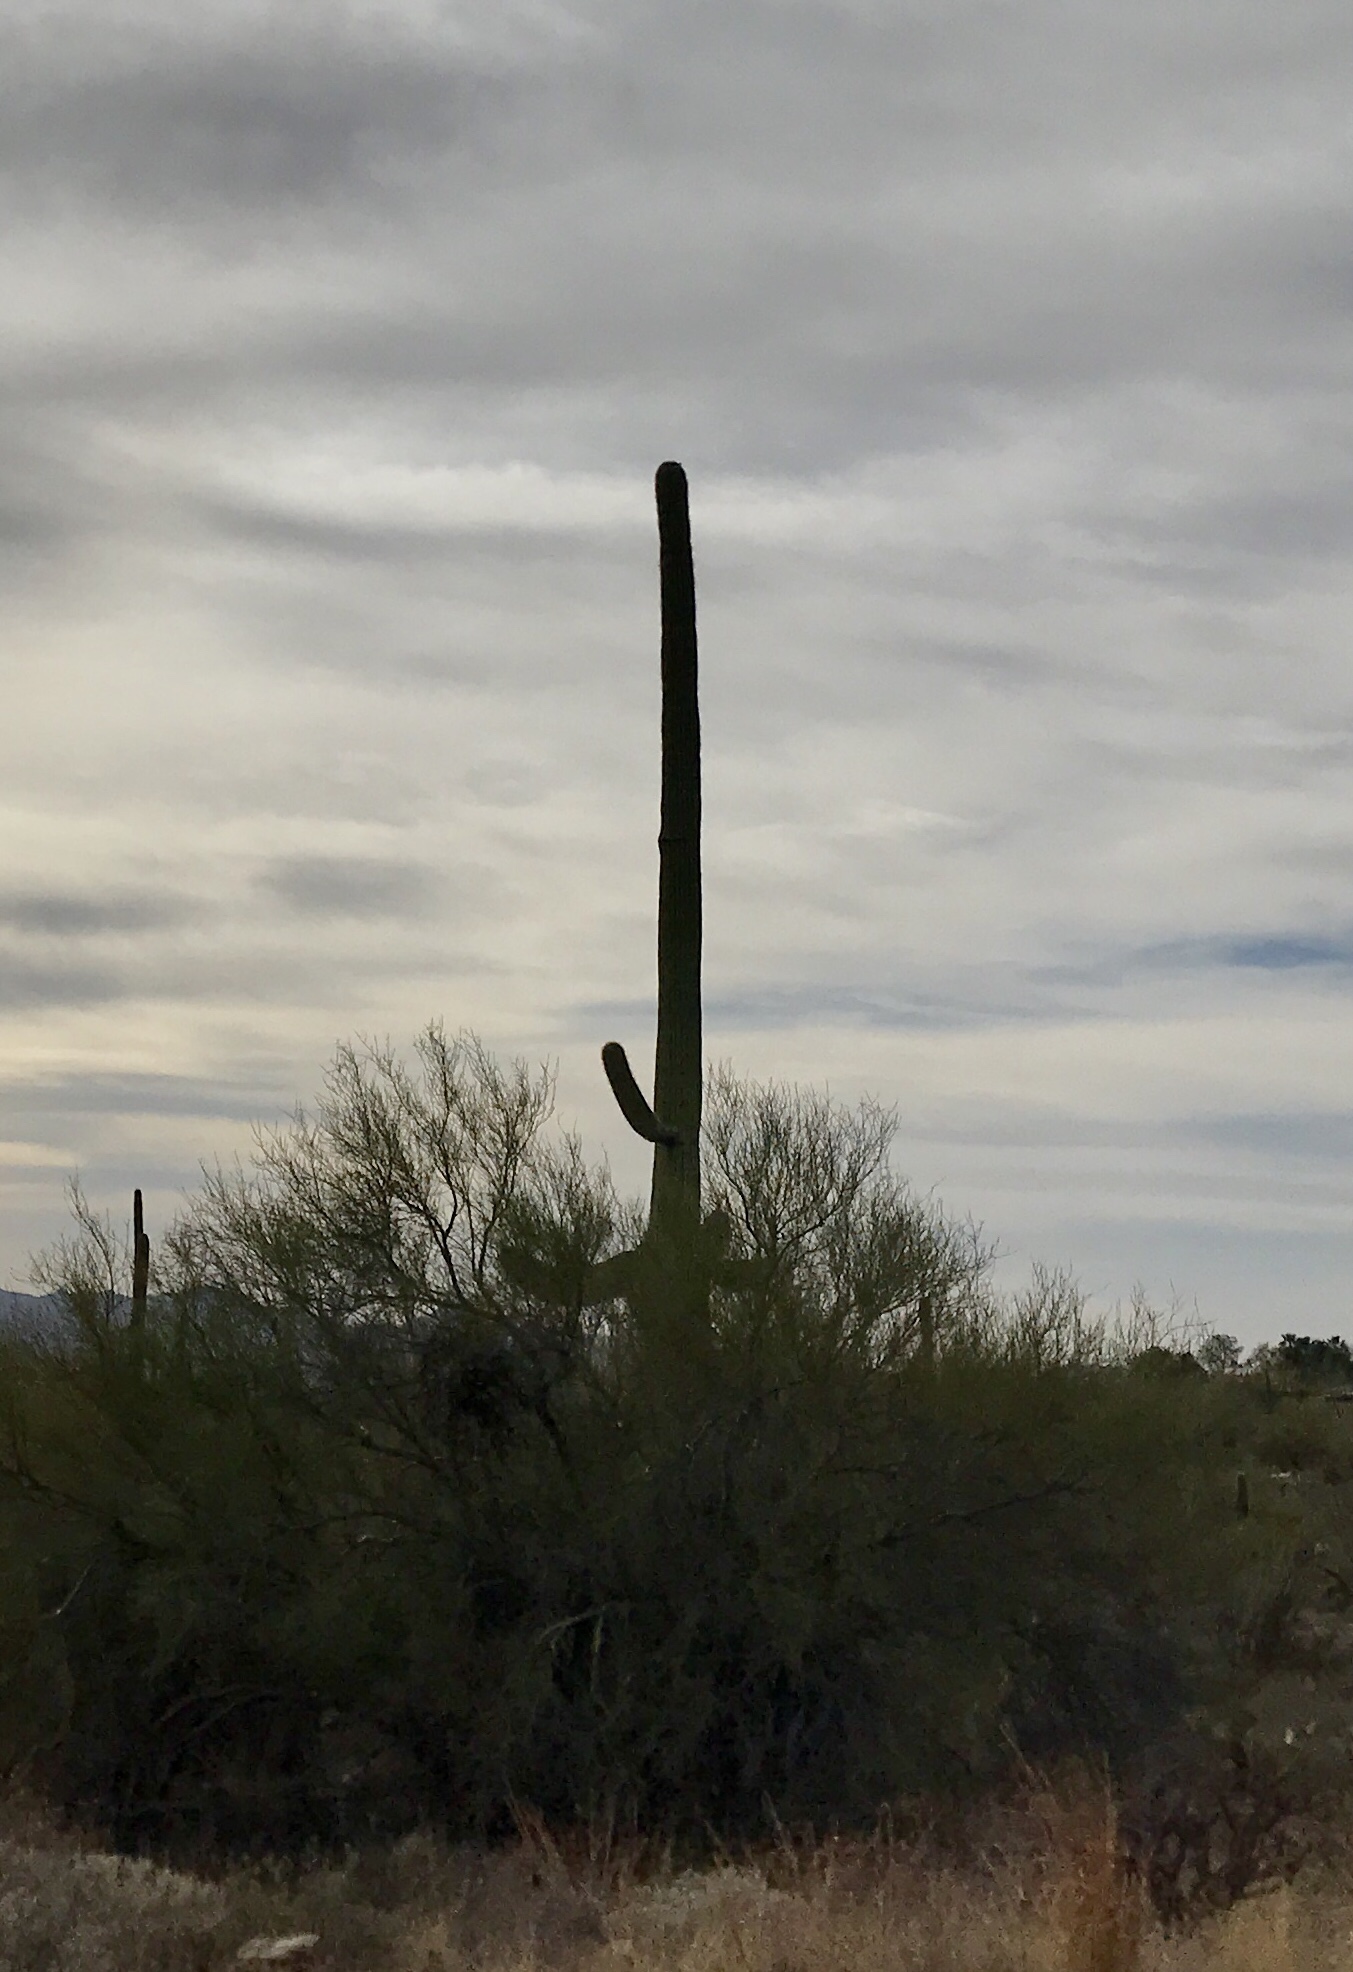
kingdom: Plantae
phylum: Tracheophyta
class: Magnoliopsida
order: Caryophyllales
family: Cactaceae
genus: Carnegiea
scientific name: Carnegiea gigantea
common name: Saguaro
